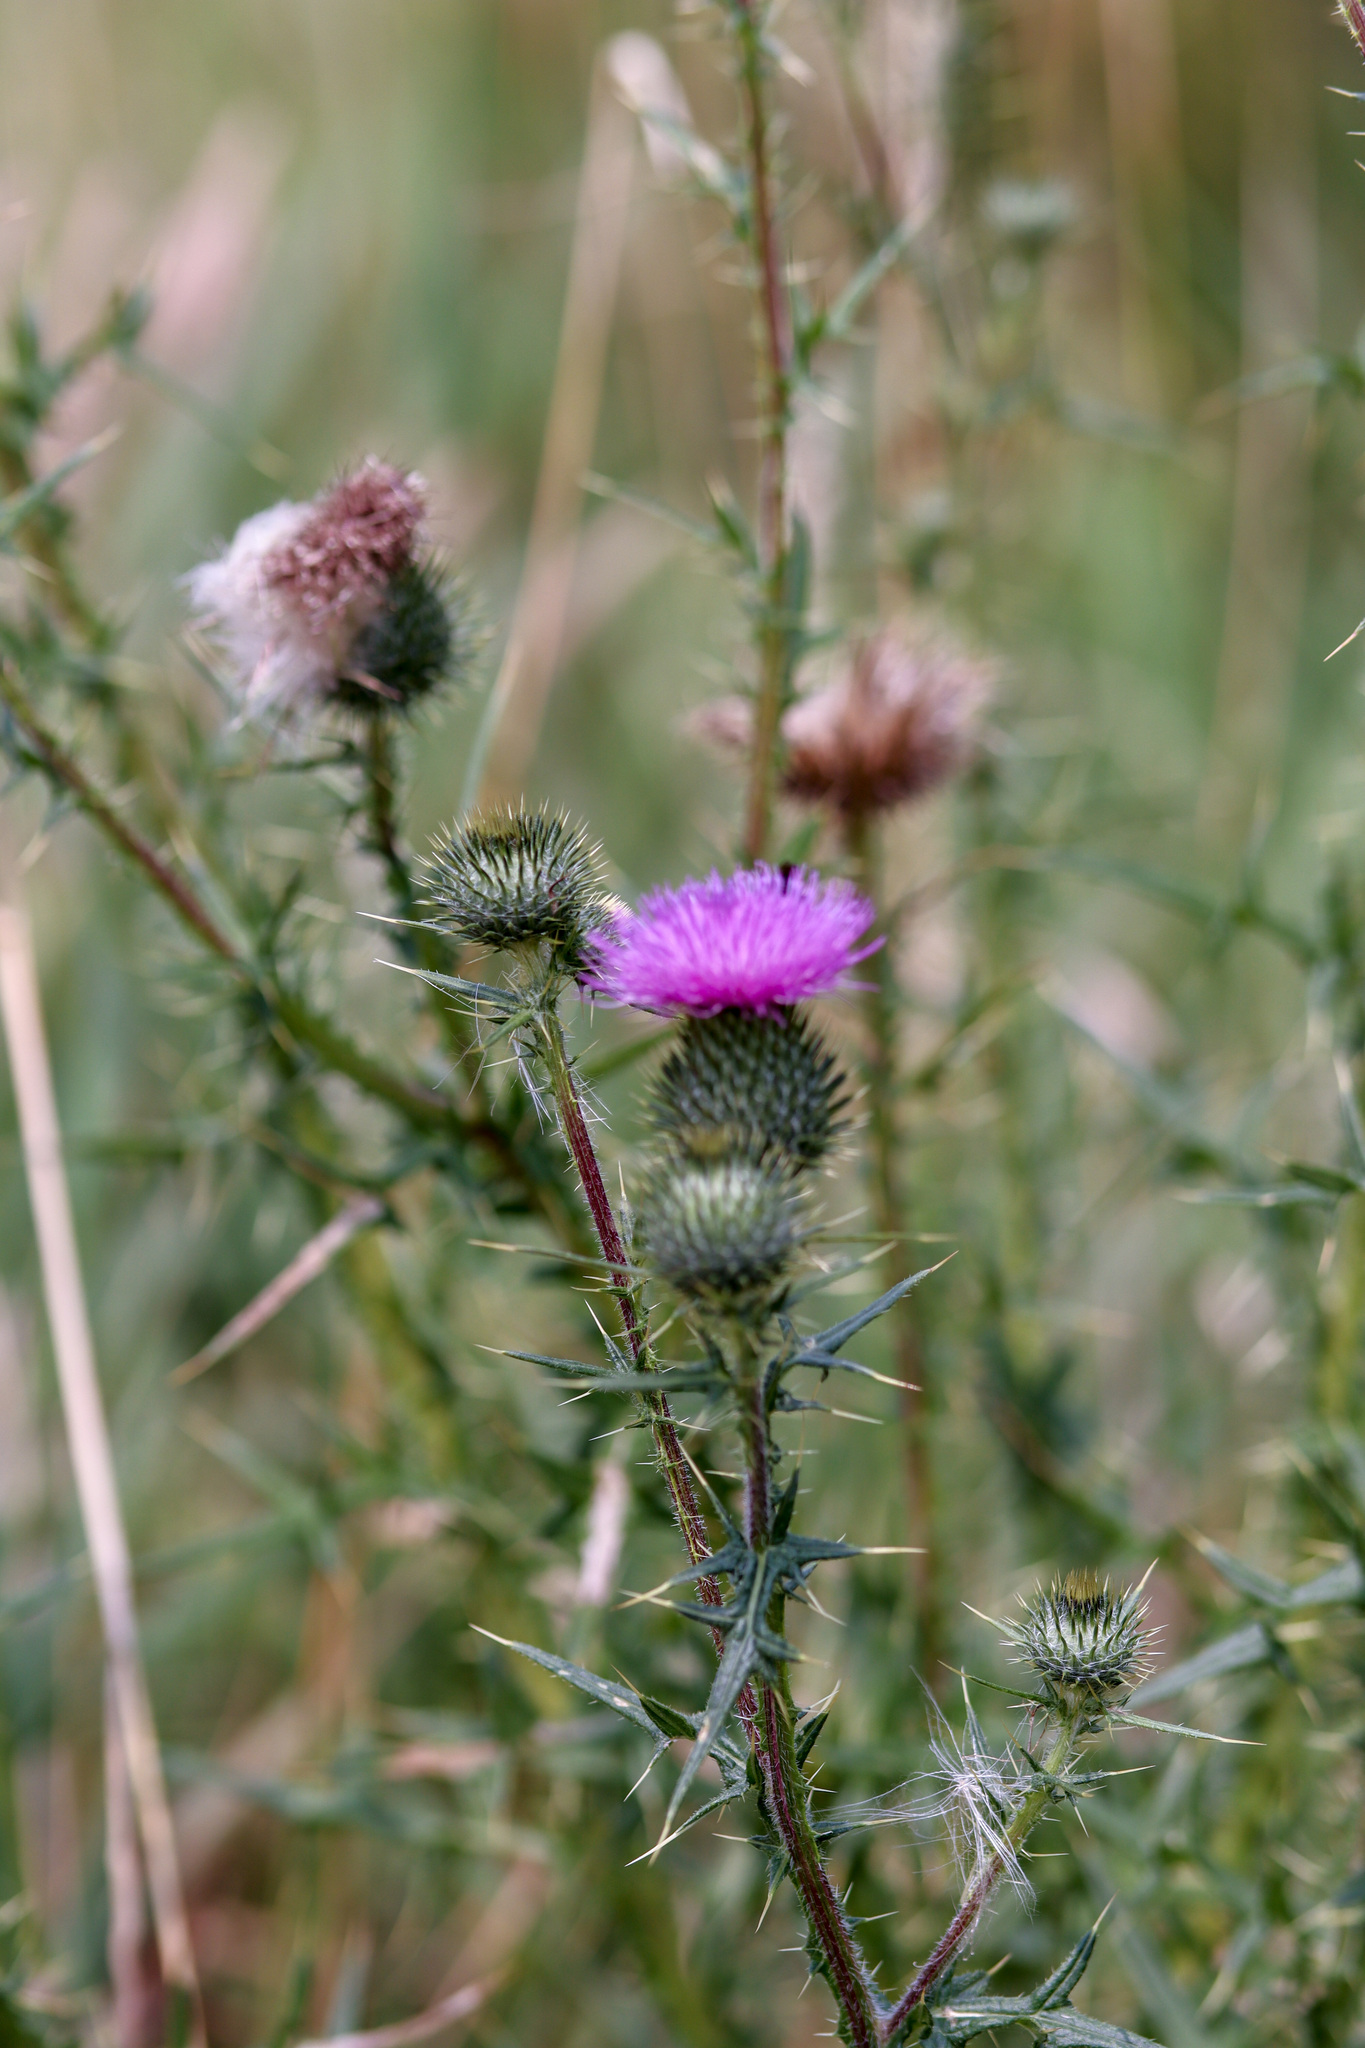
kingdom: Plantae
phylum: Tracheophyta
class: Magnoliopsida
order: Asterales
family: Asteraceae
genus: Cirsium
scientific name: Cirsium vulgare
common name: Bull thistle
